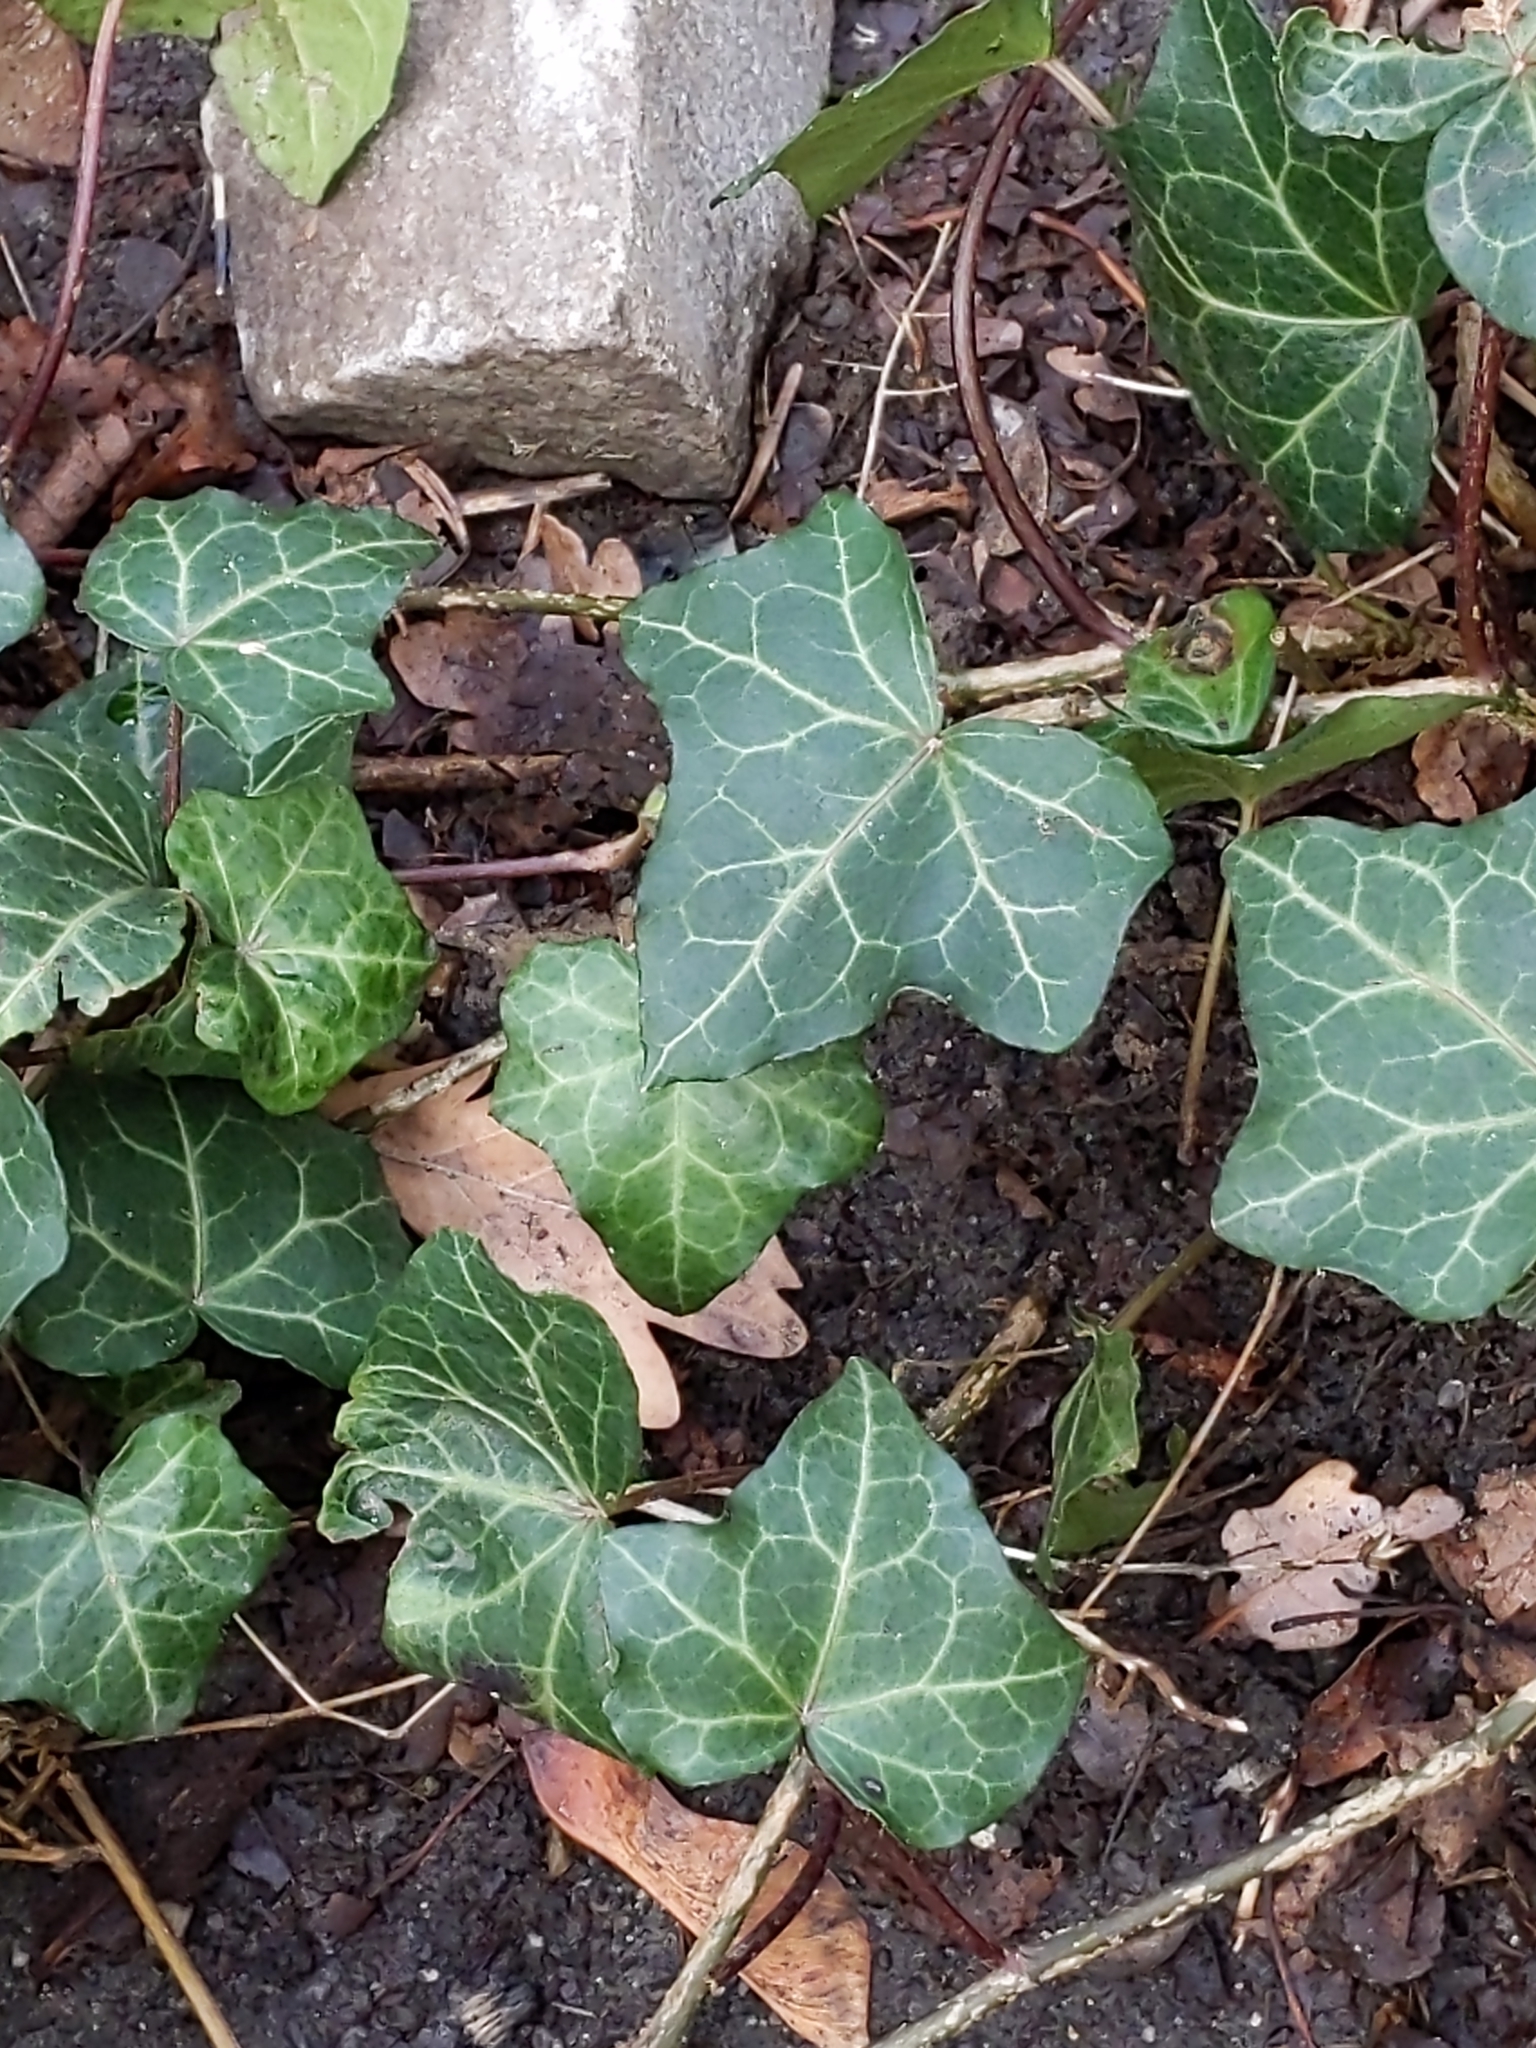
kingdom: Plantae
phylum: Tracheophyta
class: Magnoliopsida
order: Apiales
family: Araliaceae
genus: Hedera
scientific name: Hedera helix
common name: Ivy
